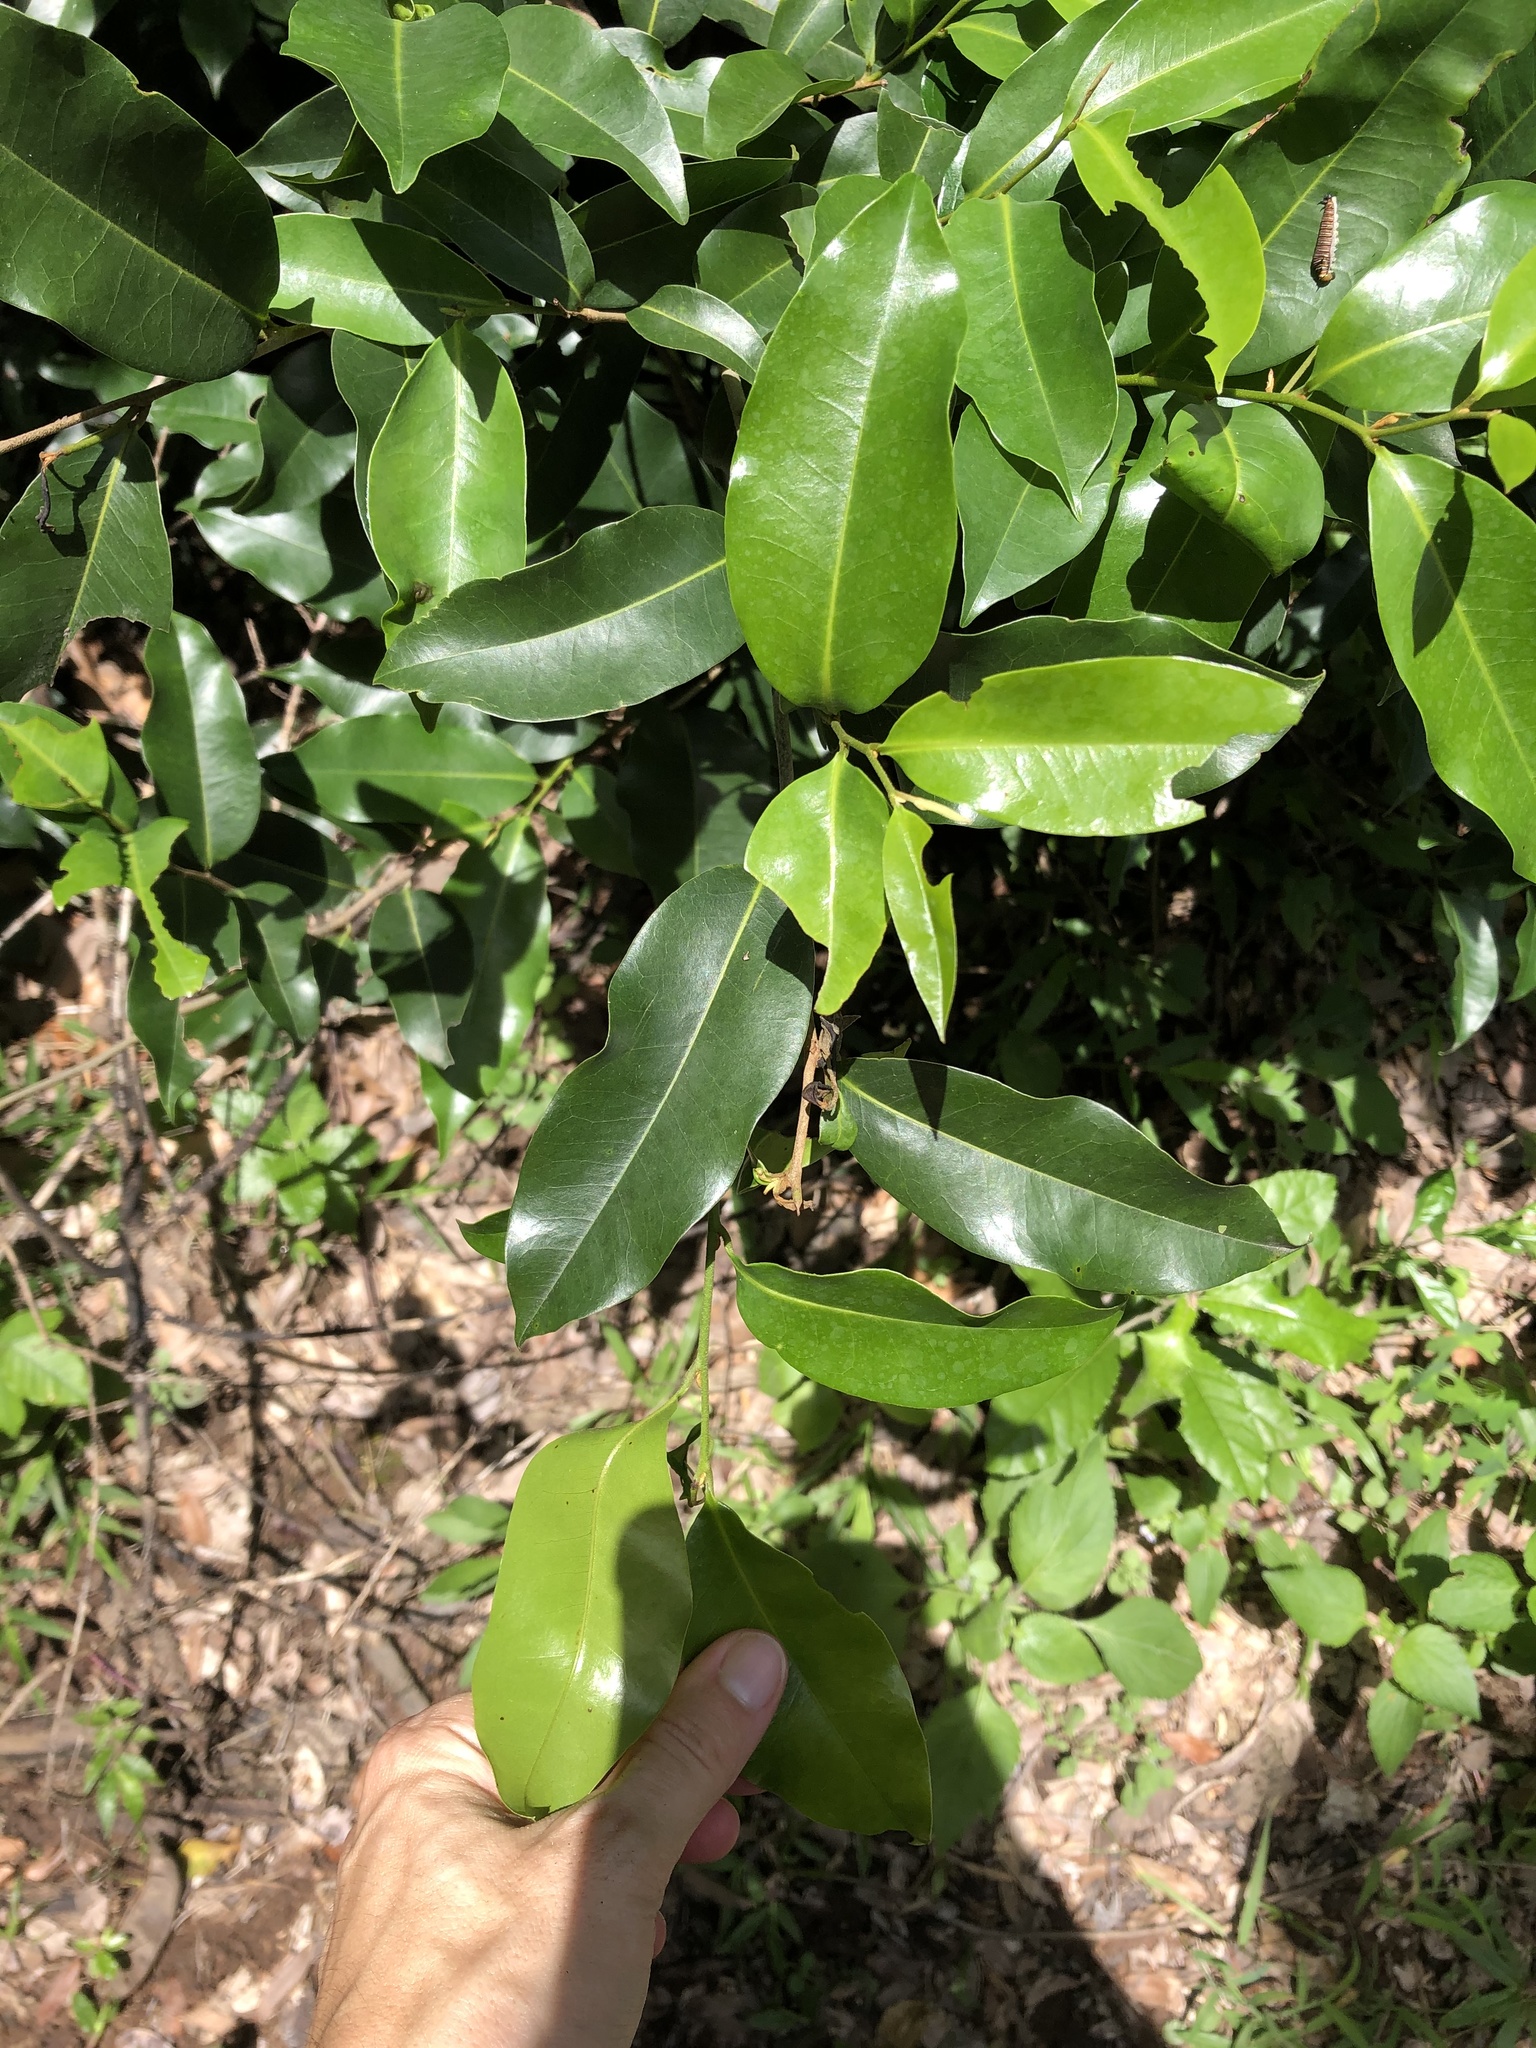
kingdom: Plantae
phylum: Tracheophyta
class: Magnoliopsida
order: Magnoliales
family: Annonaceae
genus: Uvaria
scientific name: Uvaria caffra
